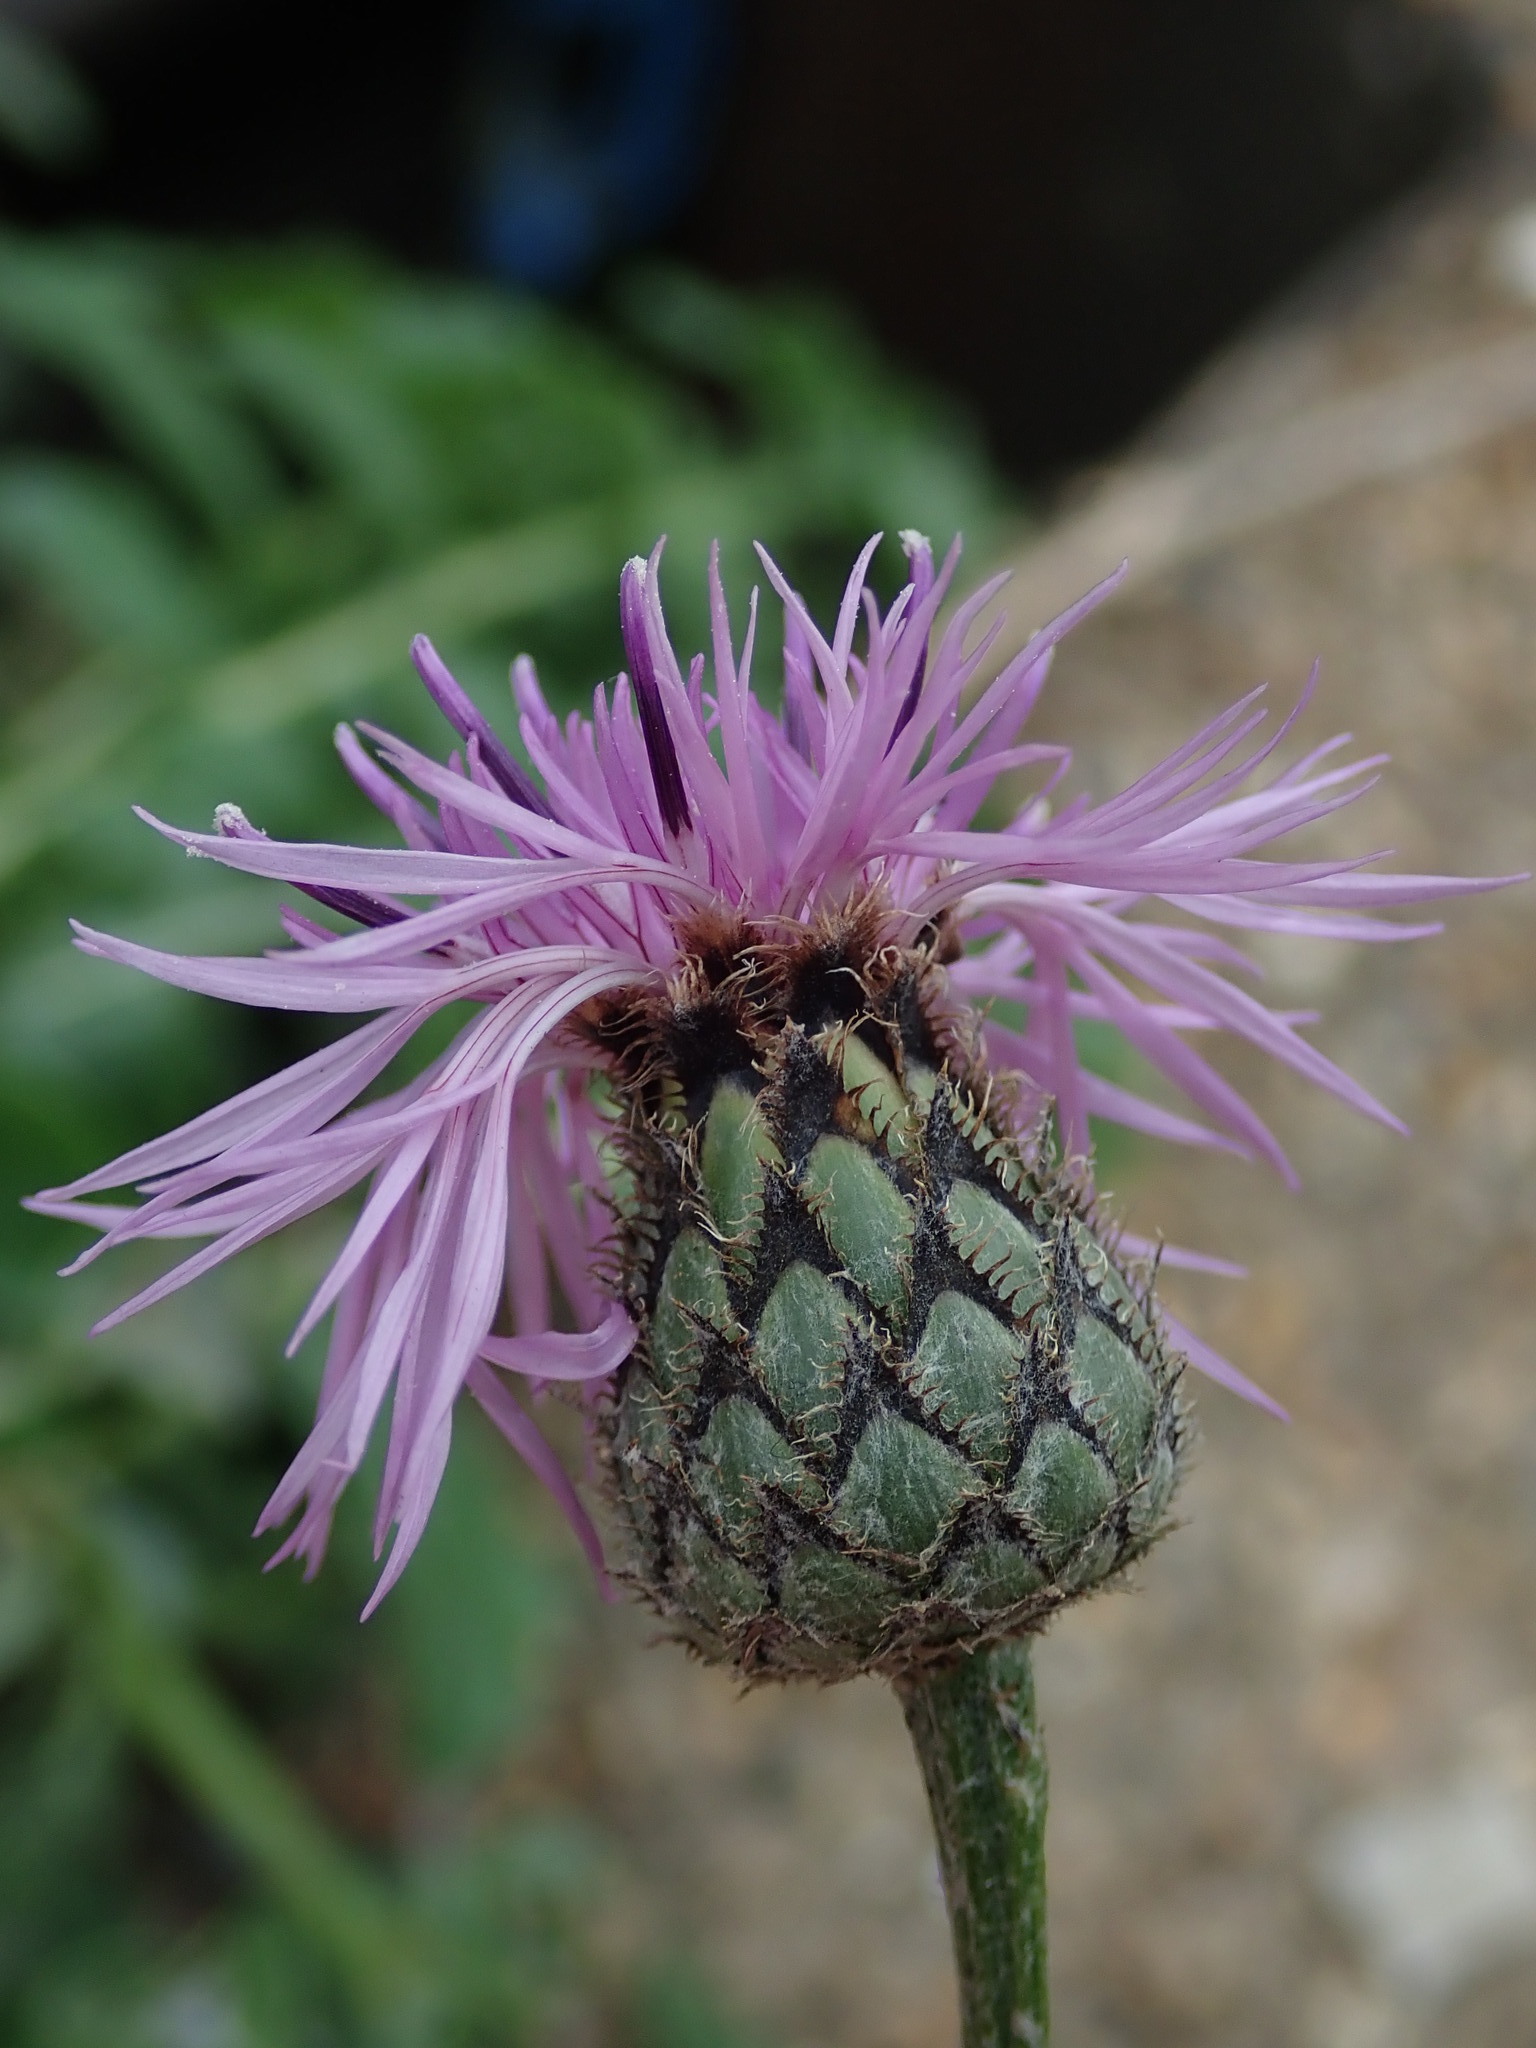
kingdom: Plantae
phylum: Tracheophyta
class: Magnoliopsida
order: Asterales
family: Asteraceae
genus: Centaurea
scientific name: Centaurea scabiosa
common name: Greater knapweed
